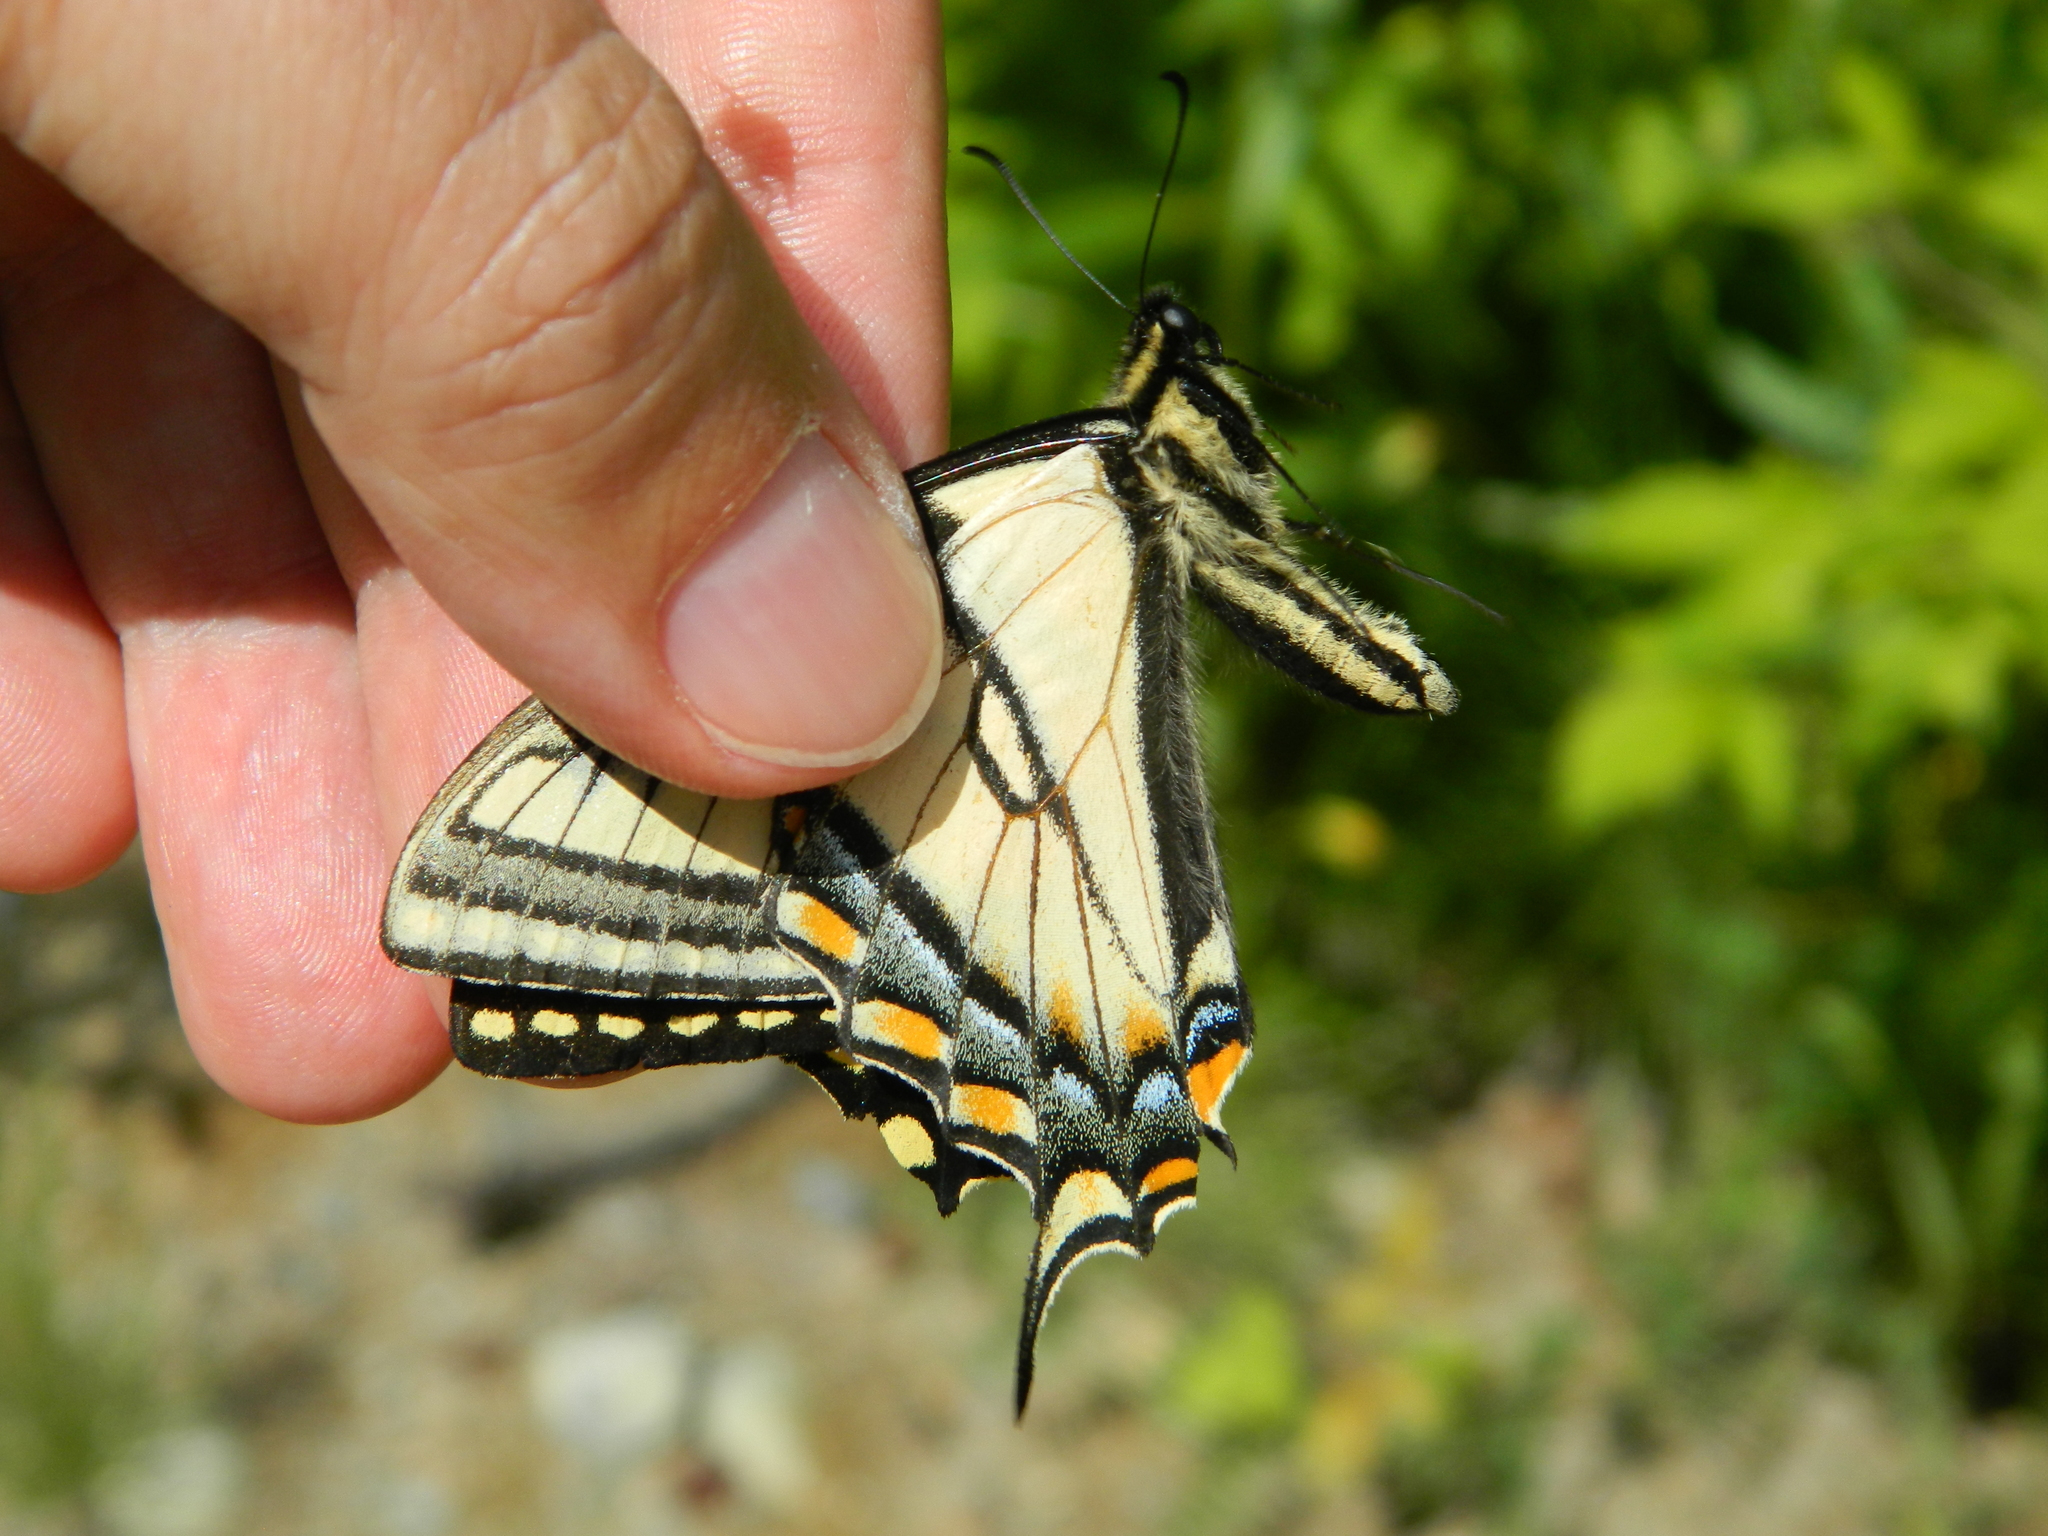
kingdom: Animalia
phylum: Arthropoda
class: Insecta
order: Lepidoptera
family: Papilionidae
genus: Papilio
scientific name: Papilio canadensis
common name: Canadian tiger swallowtail
